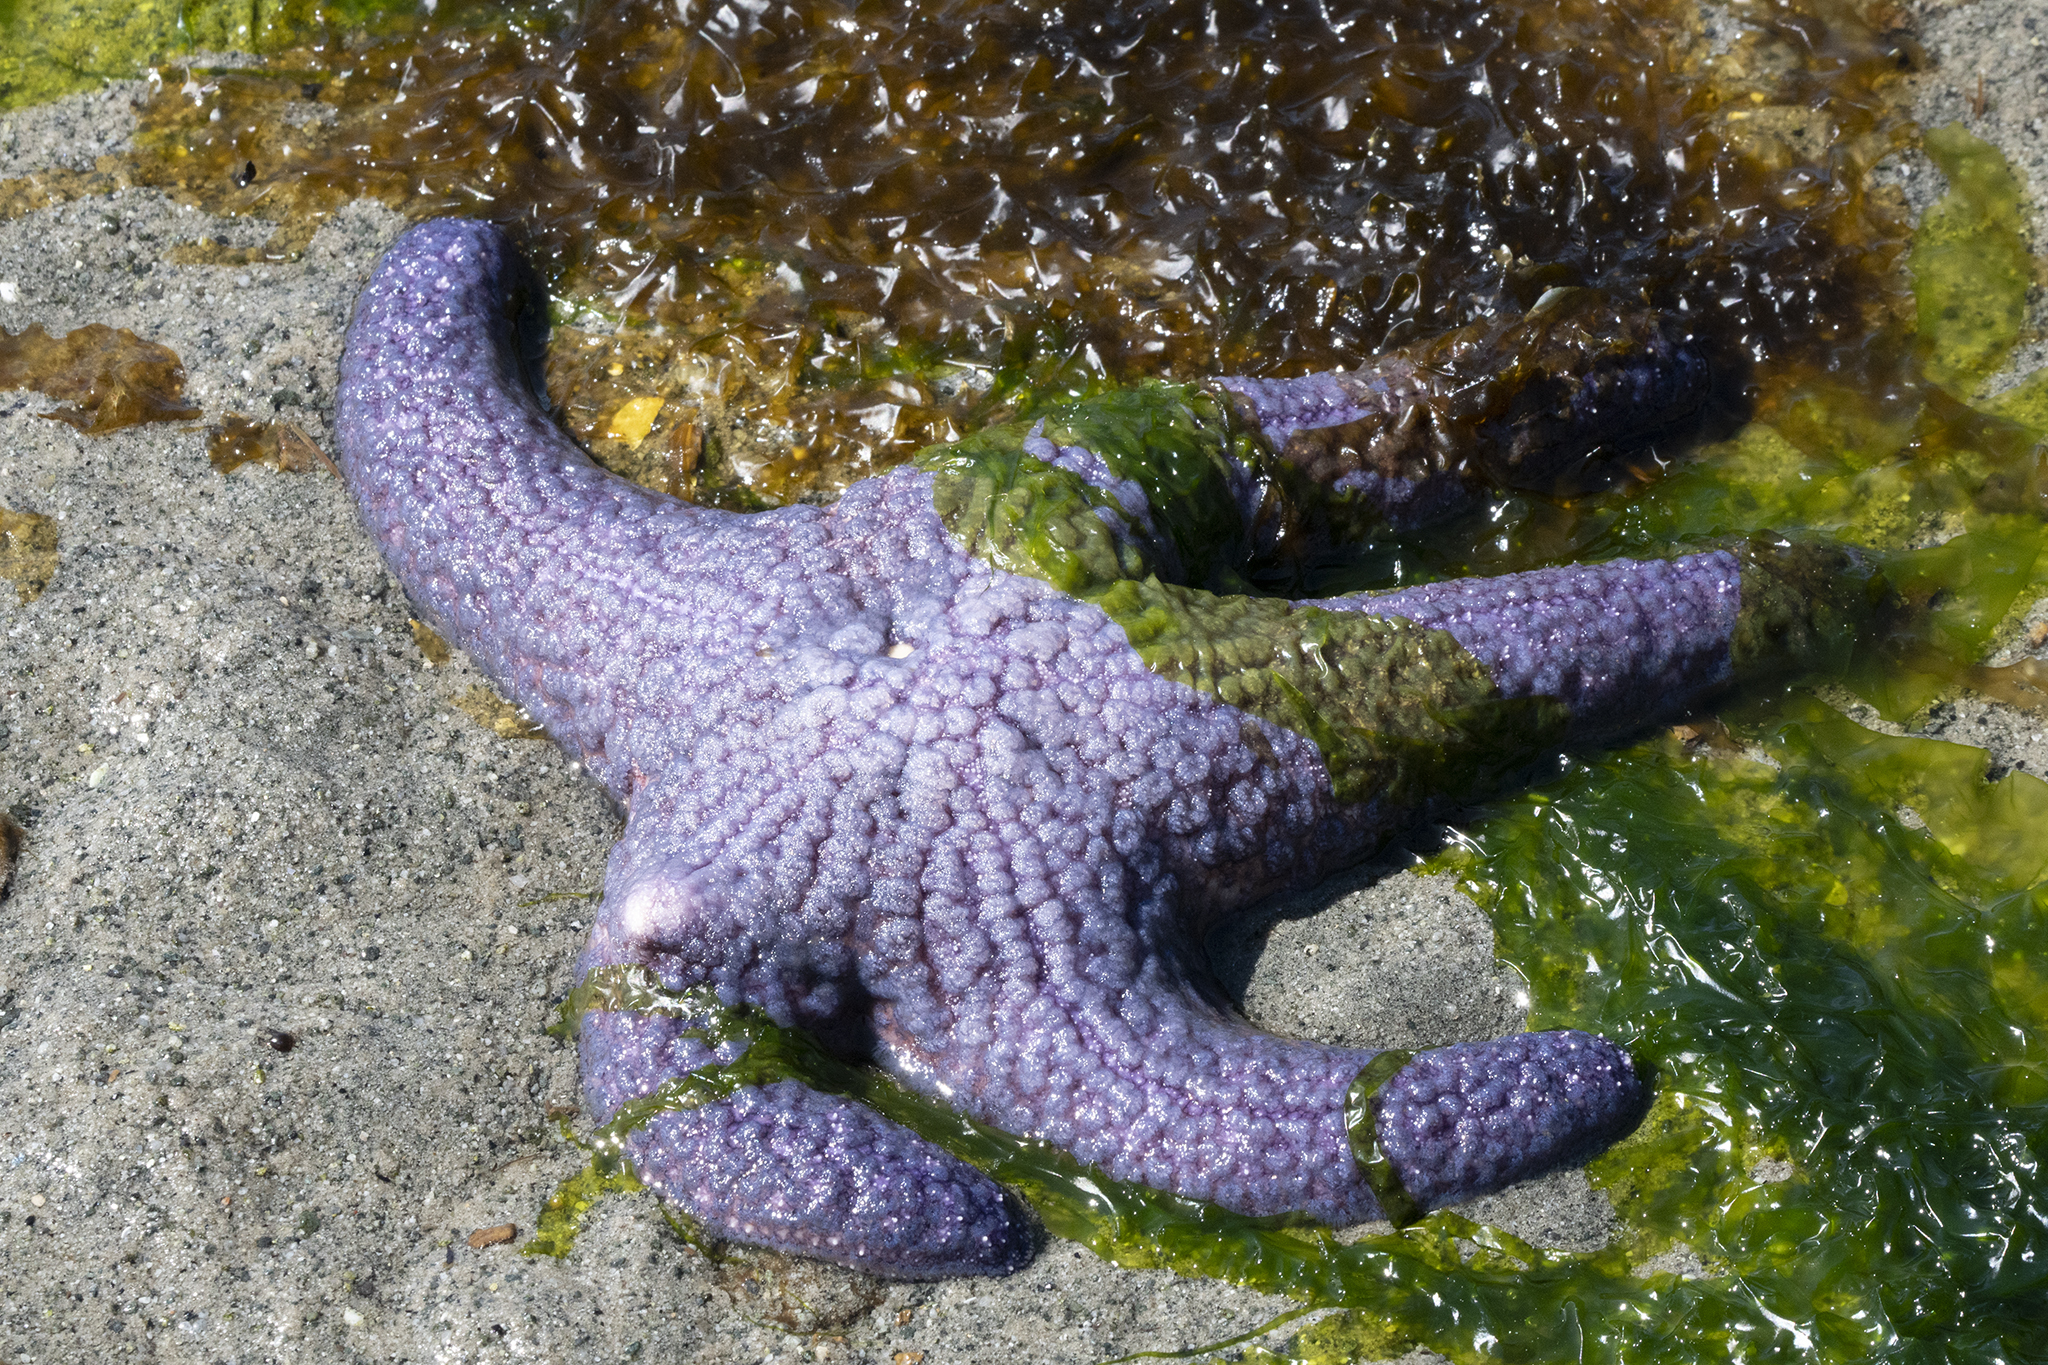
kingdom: Animalia
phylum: Echinodermata
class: Asteroidea
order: Forcipulatida
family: Asteriidae
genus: Pisaster
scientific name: Pisaster ochraceus
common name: Ochre stars
